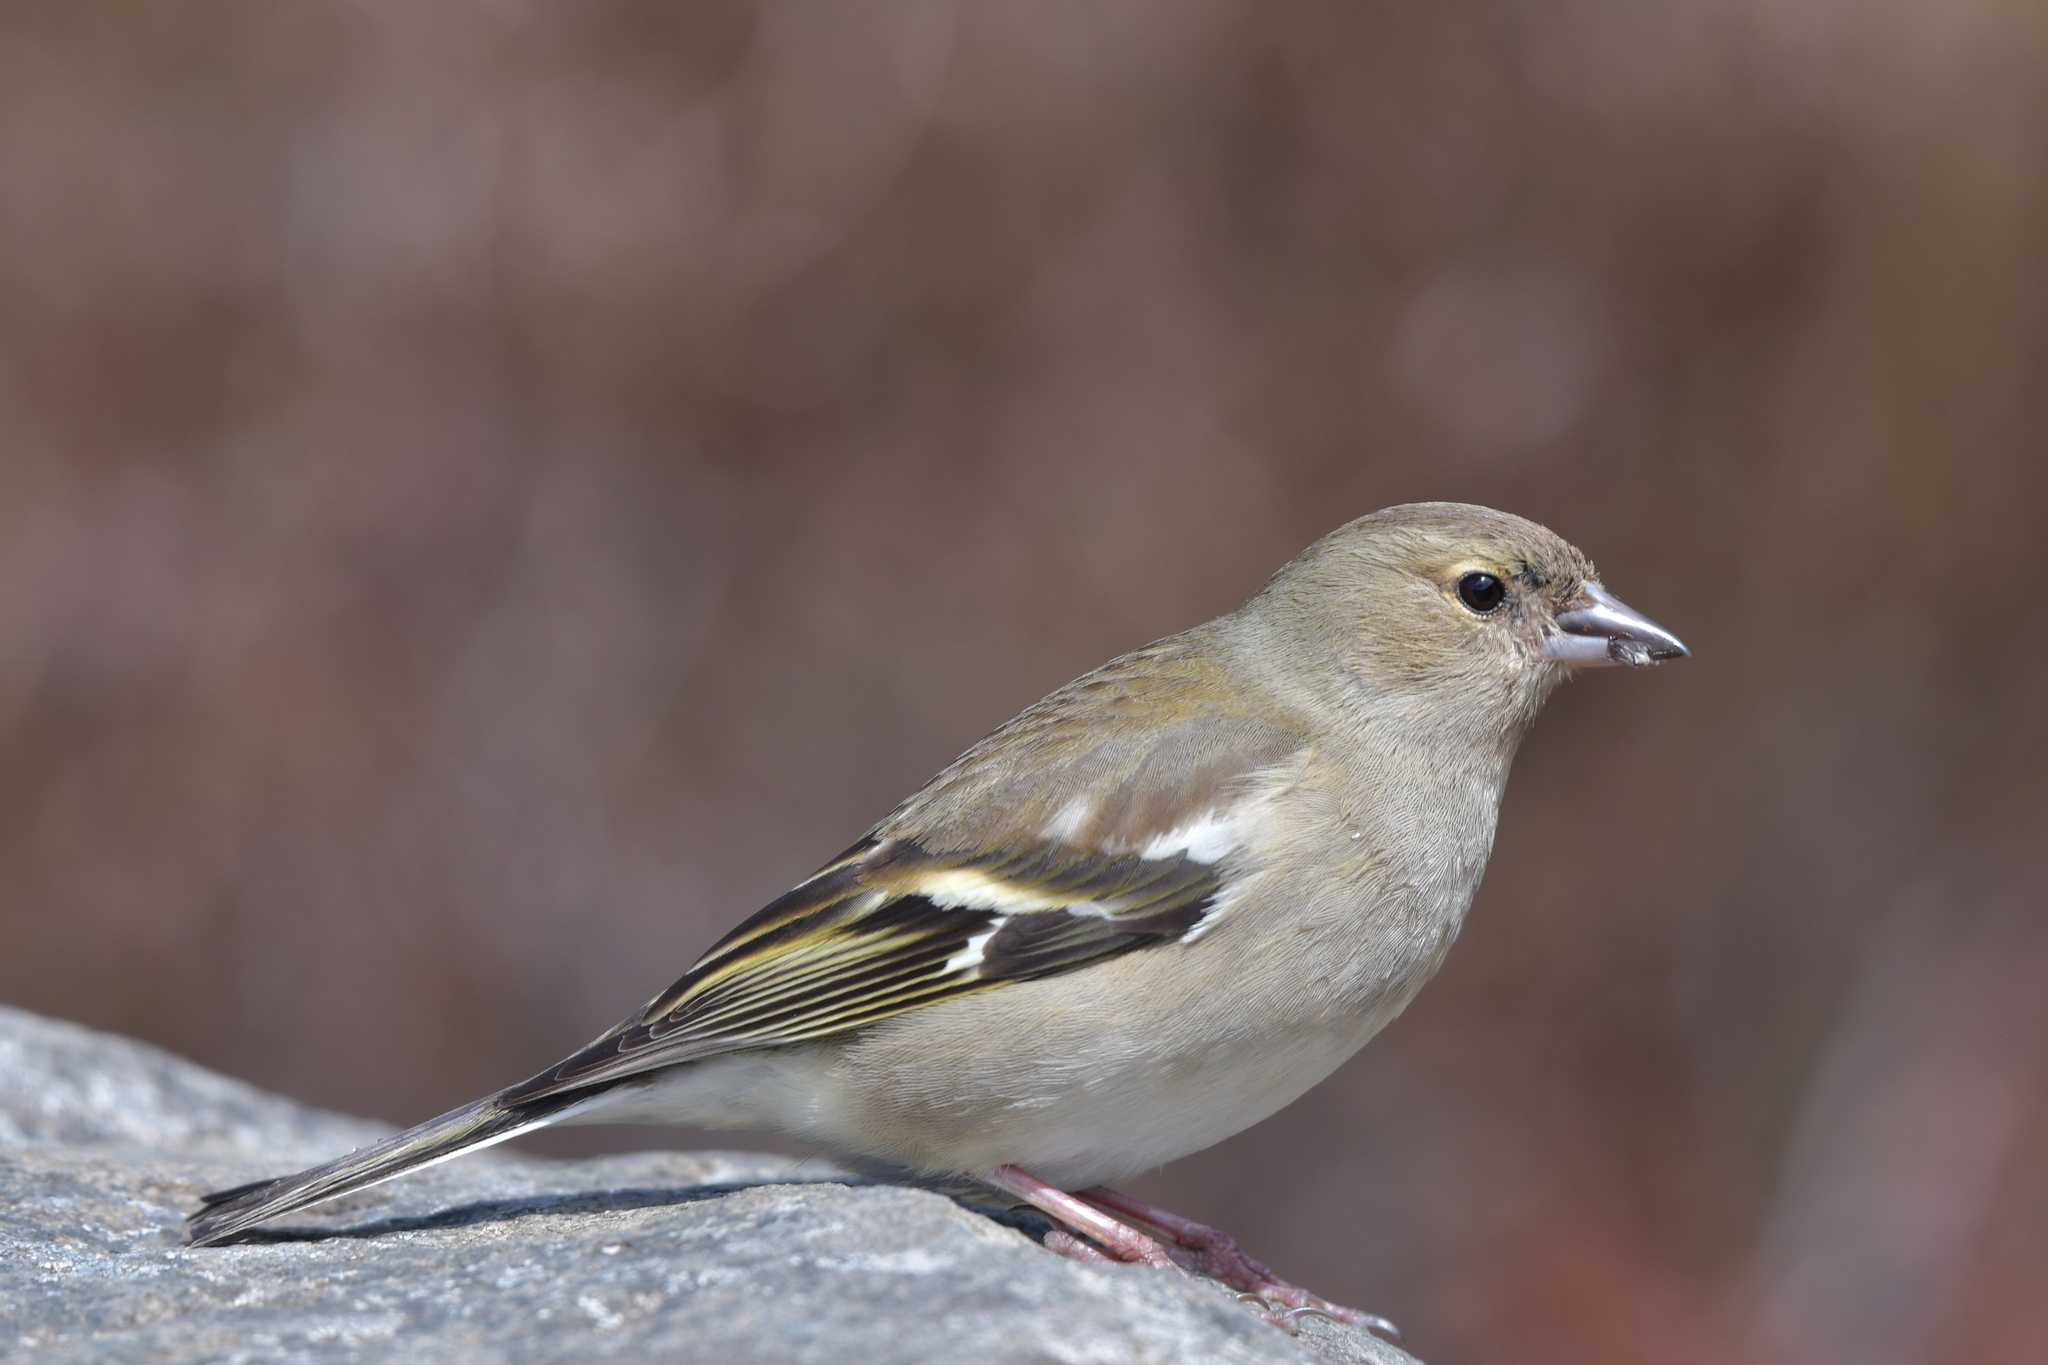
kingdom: Animalia
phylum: Chordata
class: Aves
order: Passeriformes
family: Fringillidae
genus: Fringilla
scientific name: Fringilla coelebs
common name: Common chaffinch
